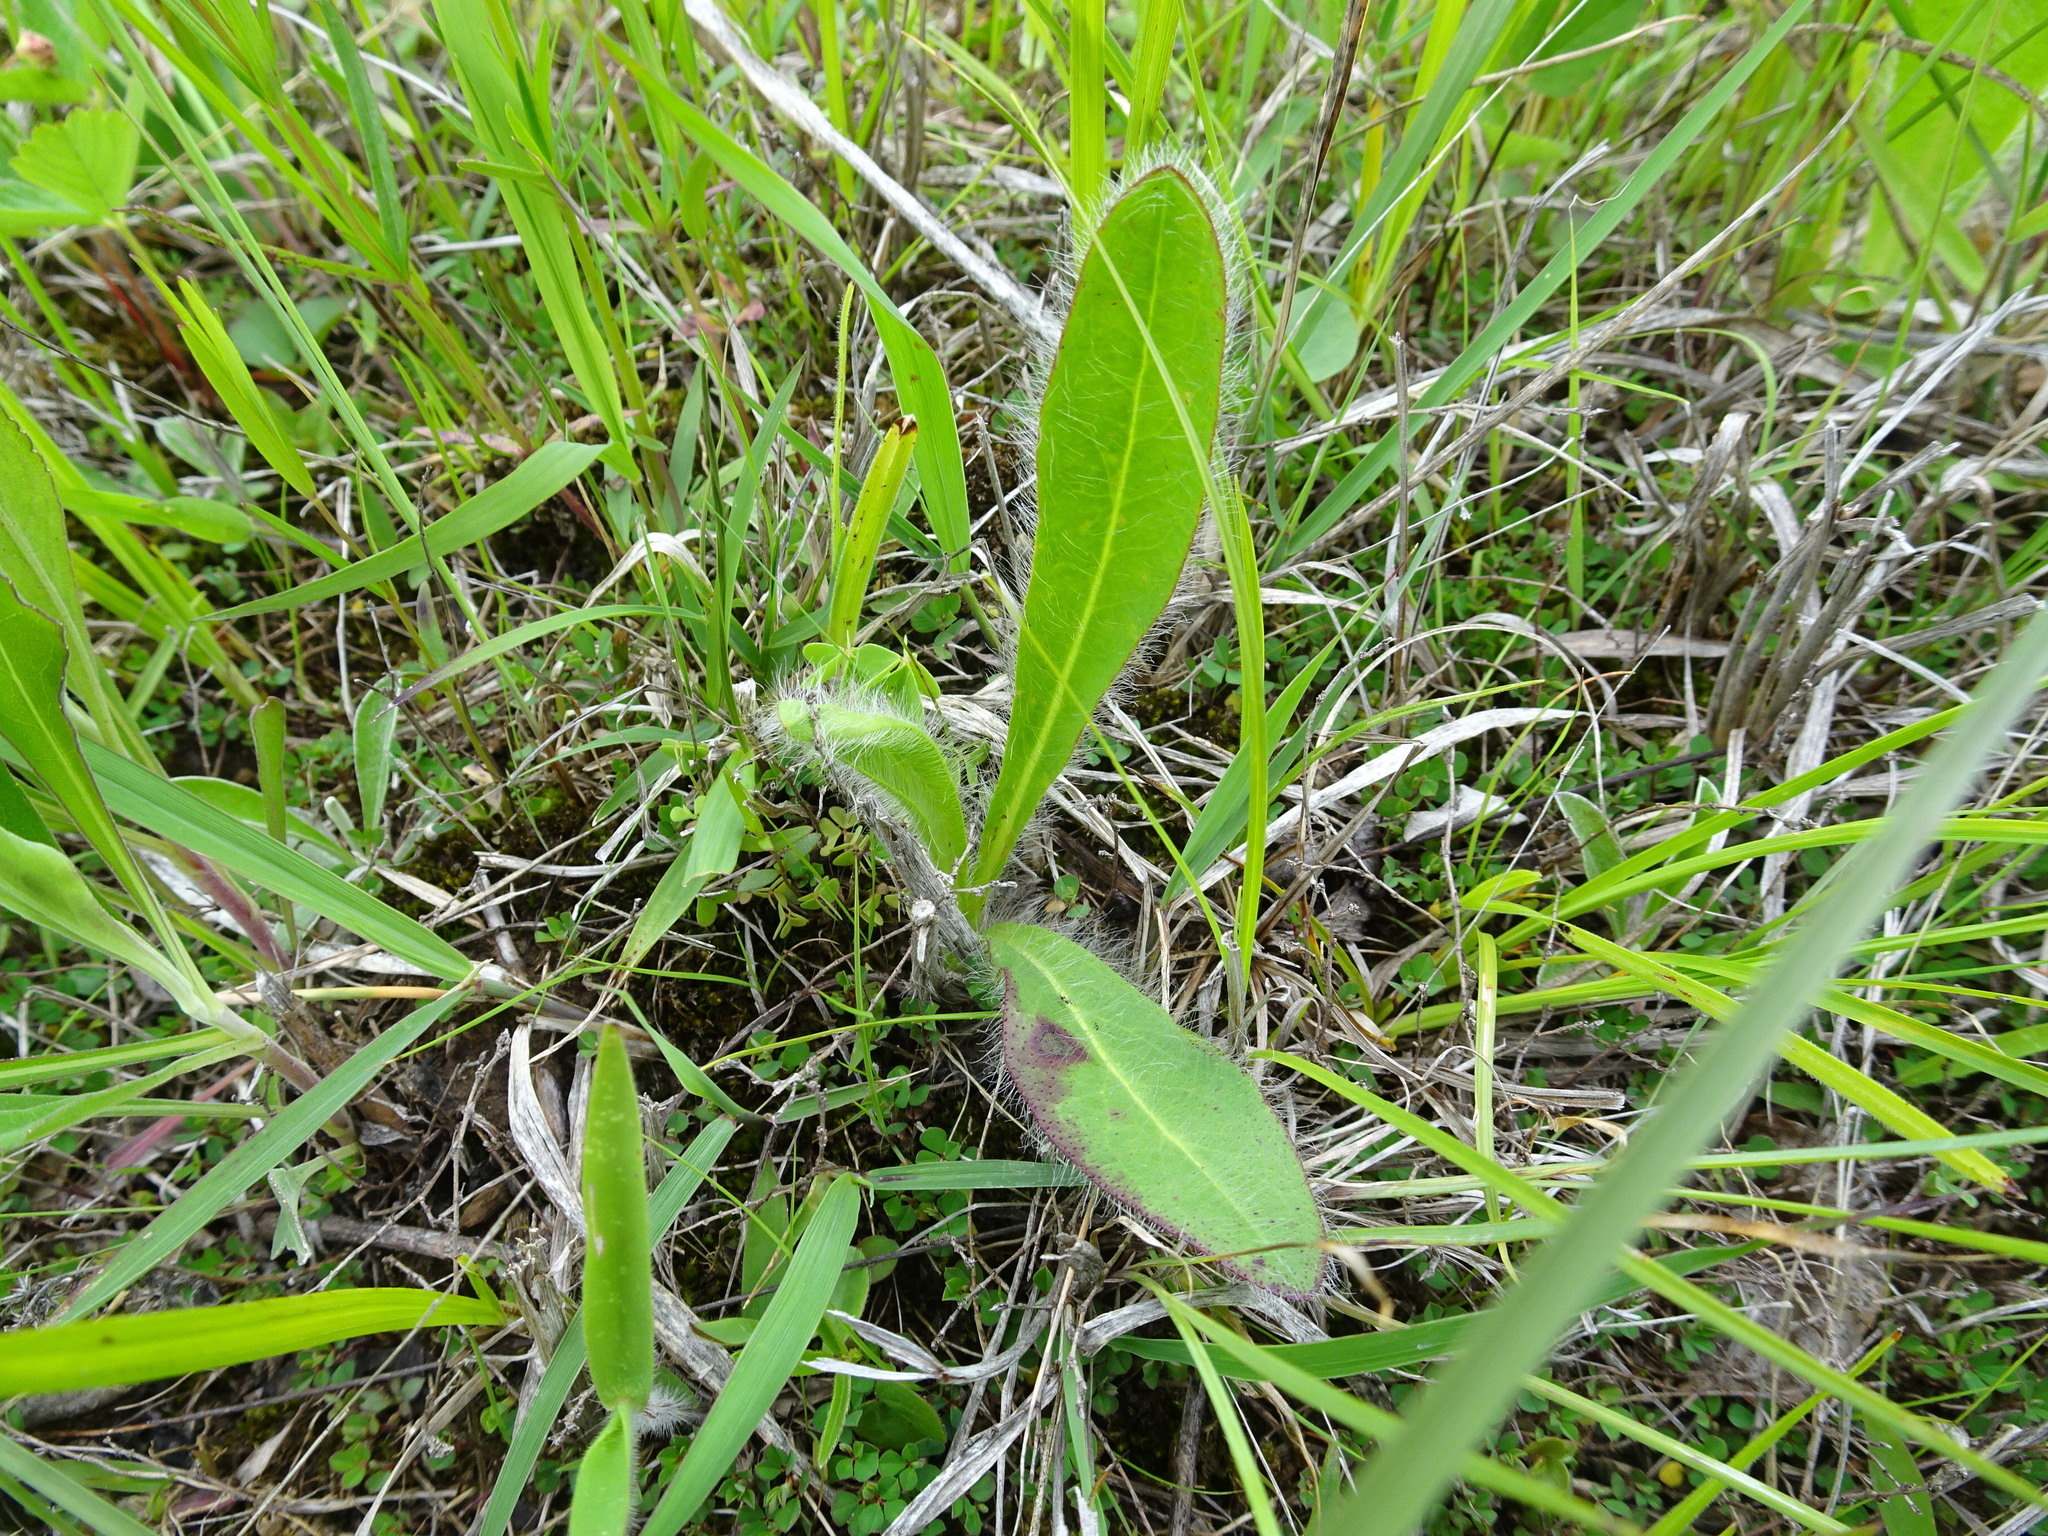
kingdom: Plantae
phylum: Tracheophyta
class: Magnoliopsida
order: Asterales
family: Asteraceae
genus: Hieracium
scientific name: Hieracium longipilum
